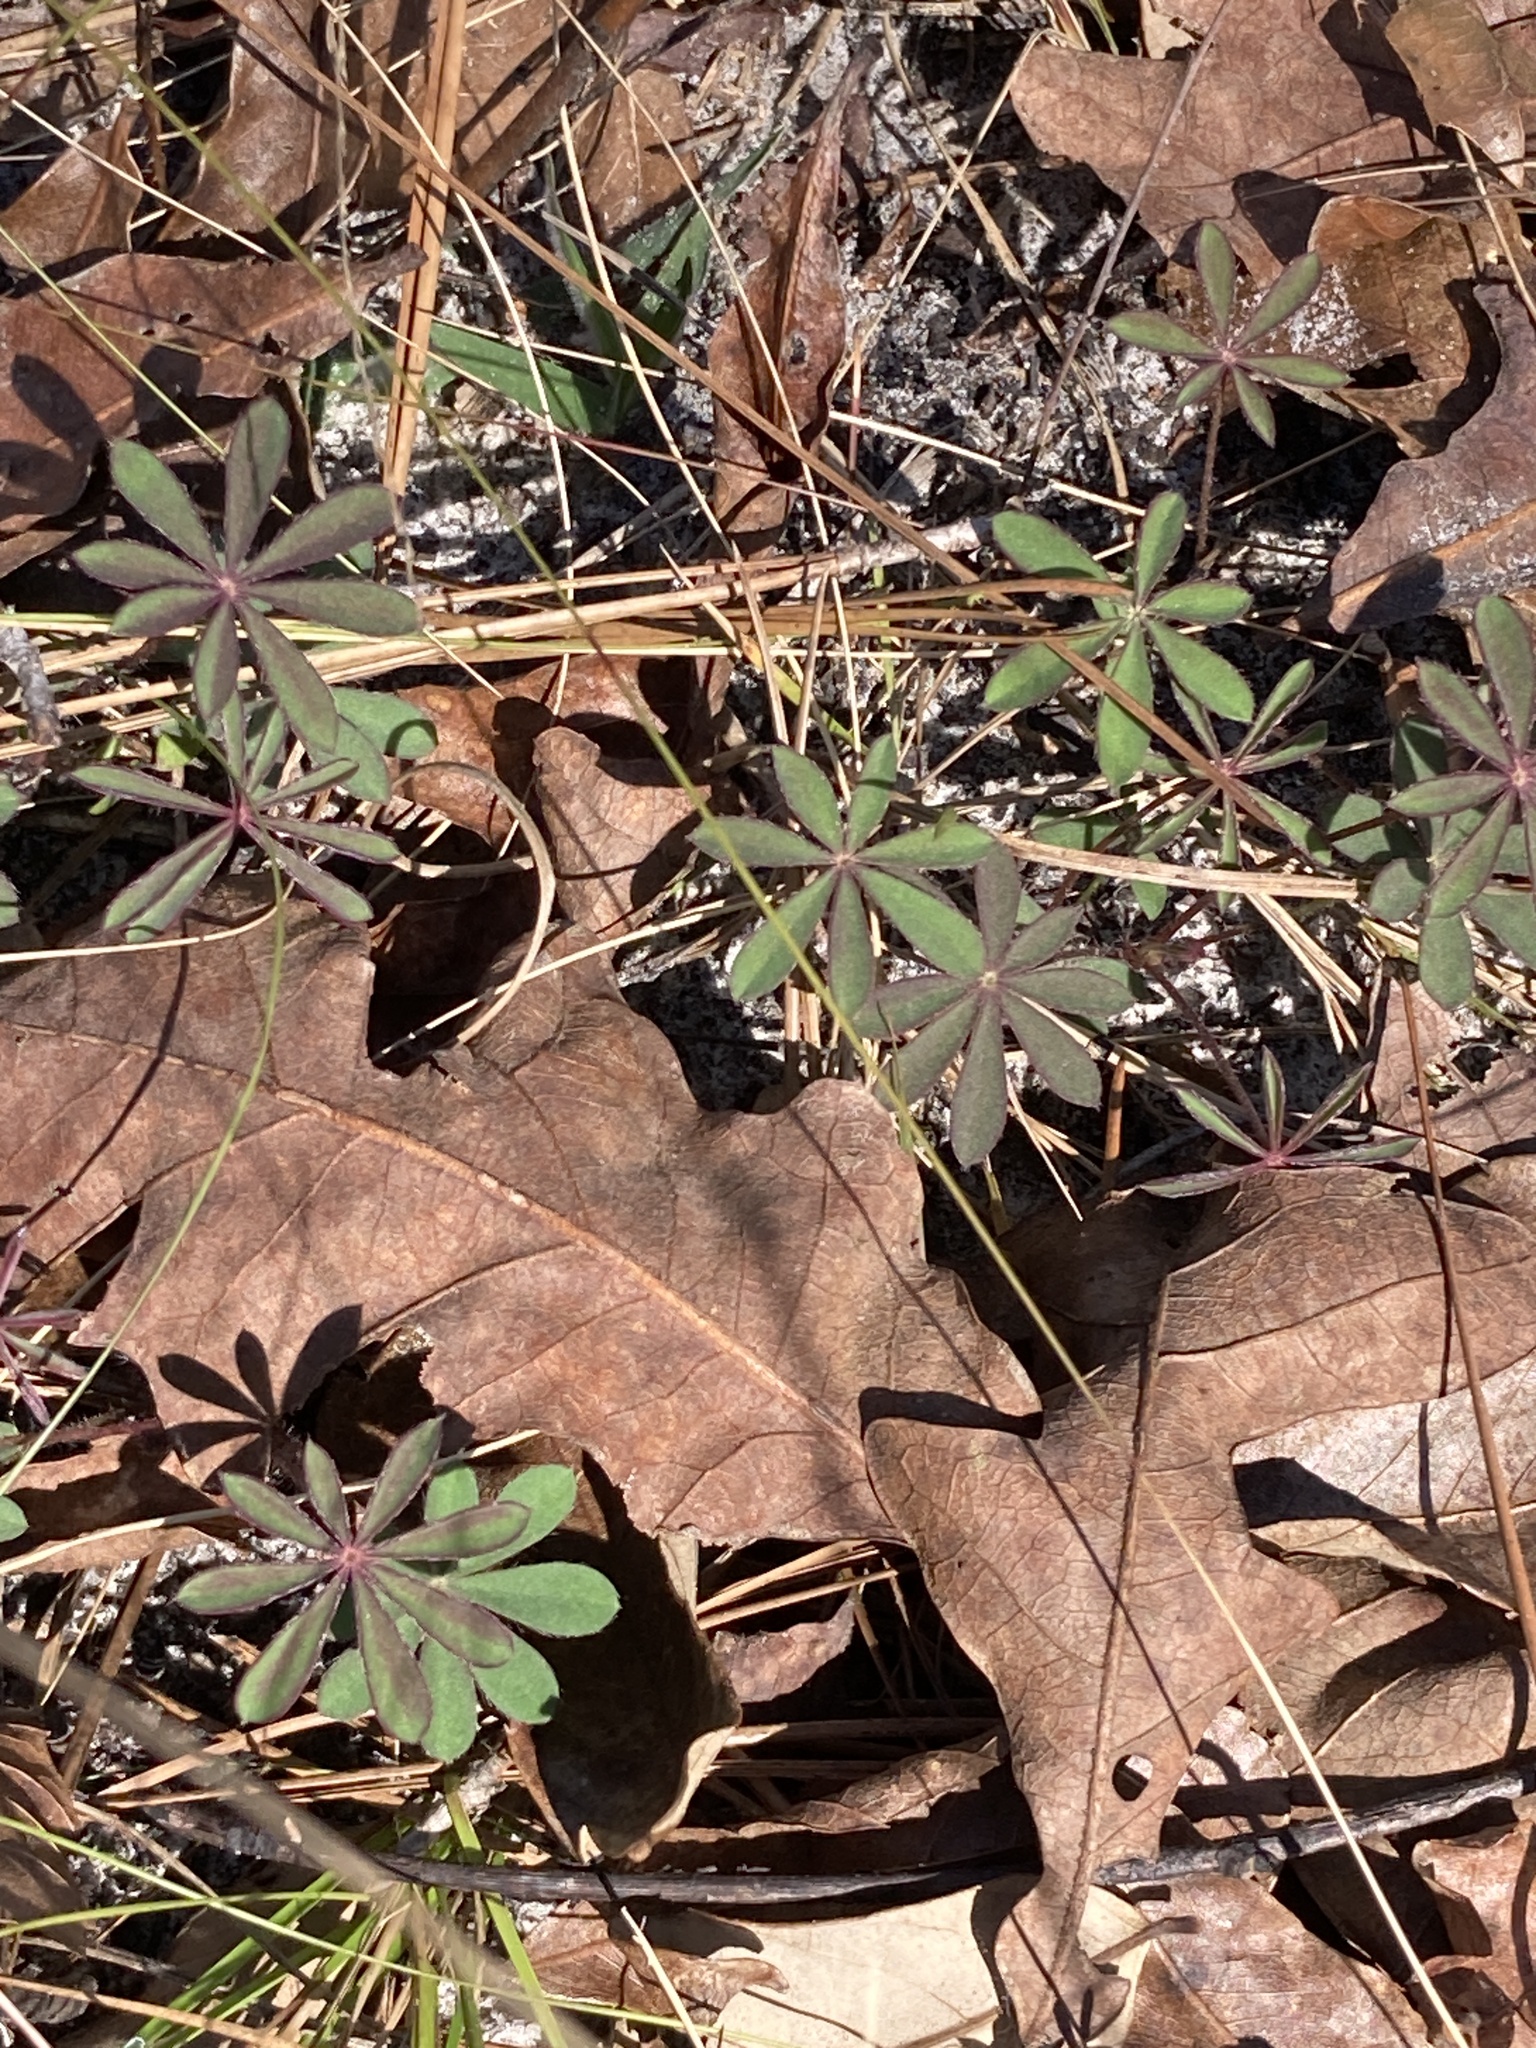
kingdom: Plantae
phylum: Tracheophyta
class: Magnoliopsida
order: Fabales
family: Fabaceae
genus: Lupinus
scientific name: Lupinus perennis
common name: Sundial lupine
